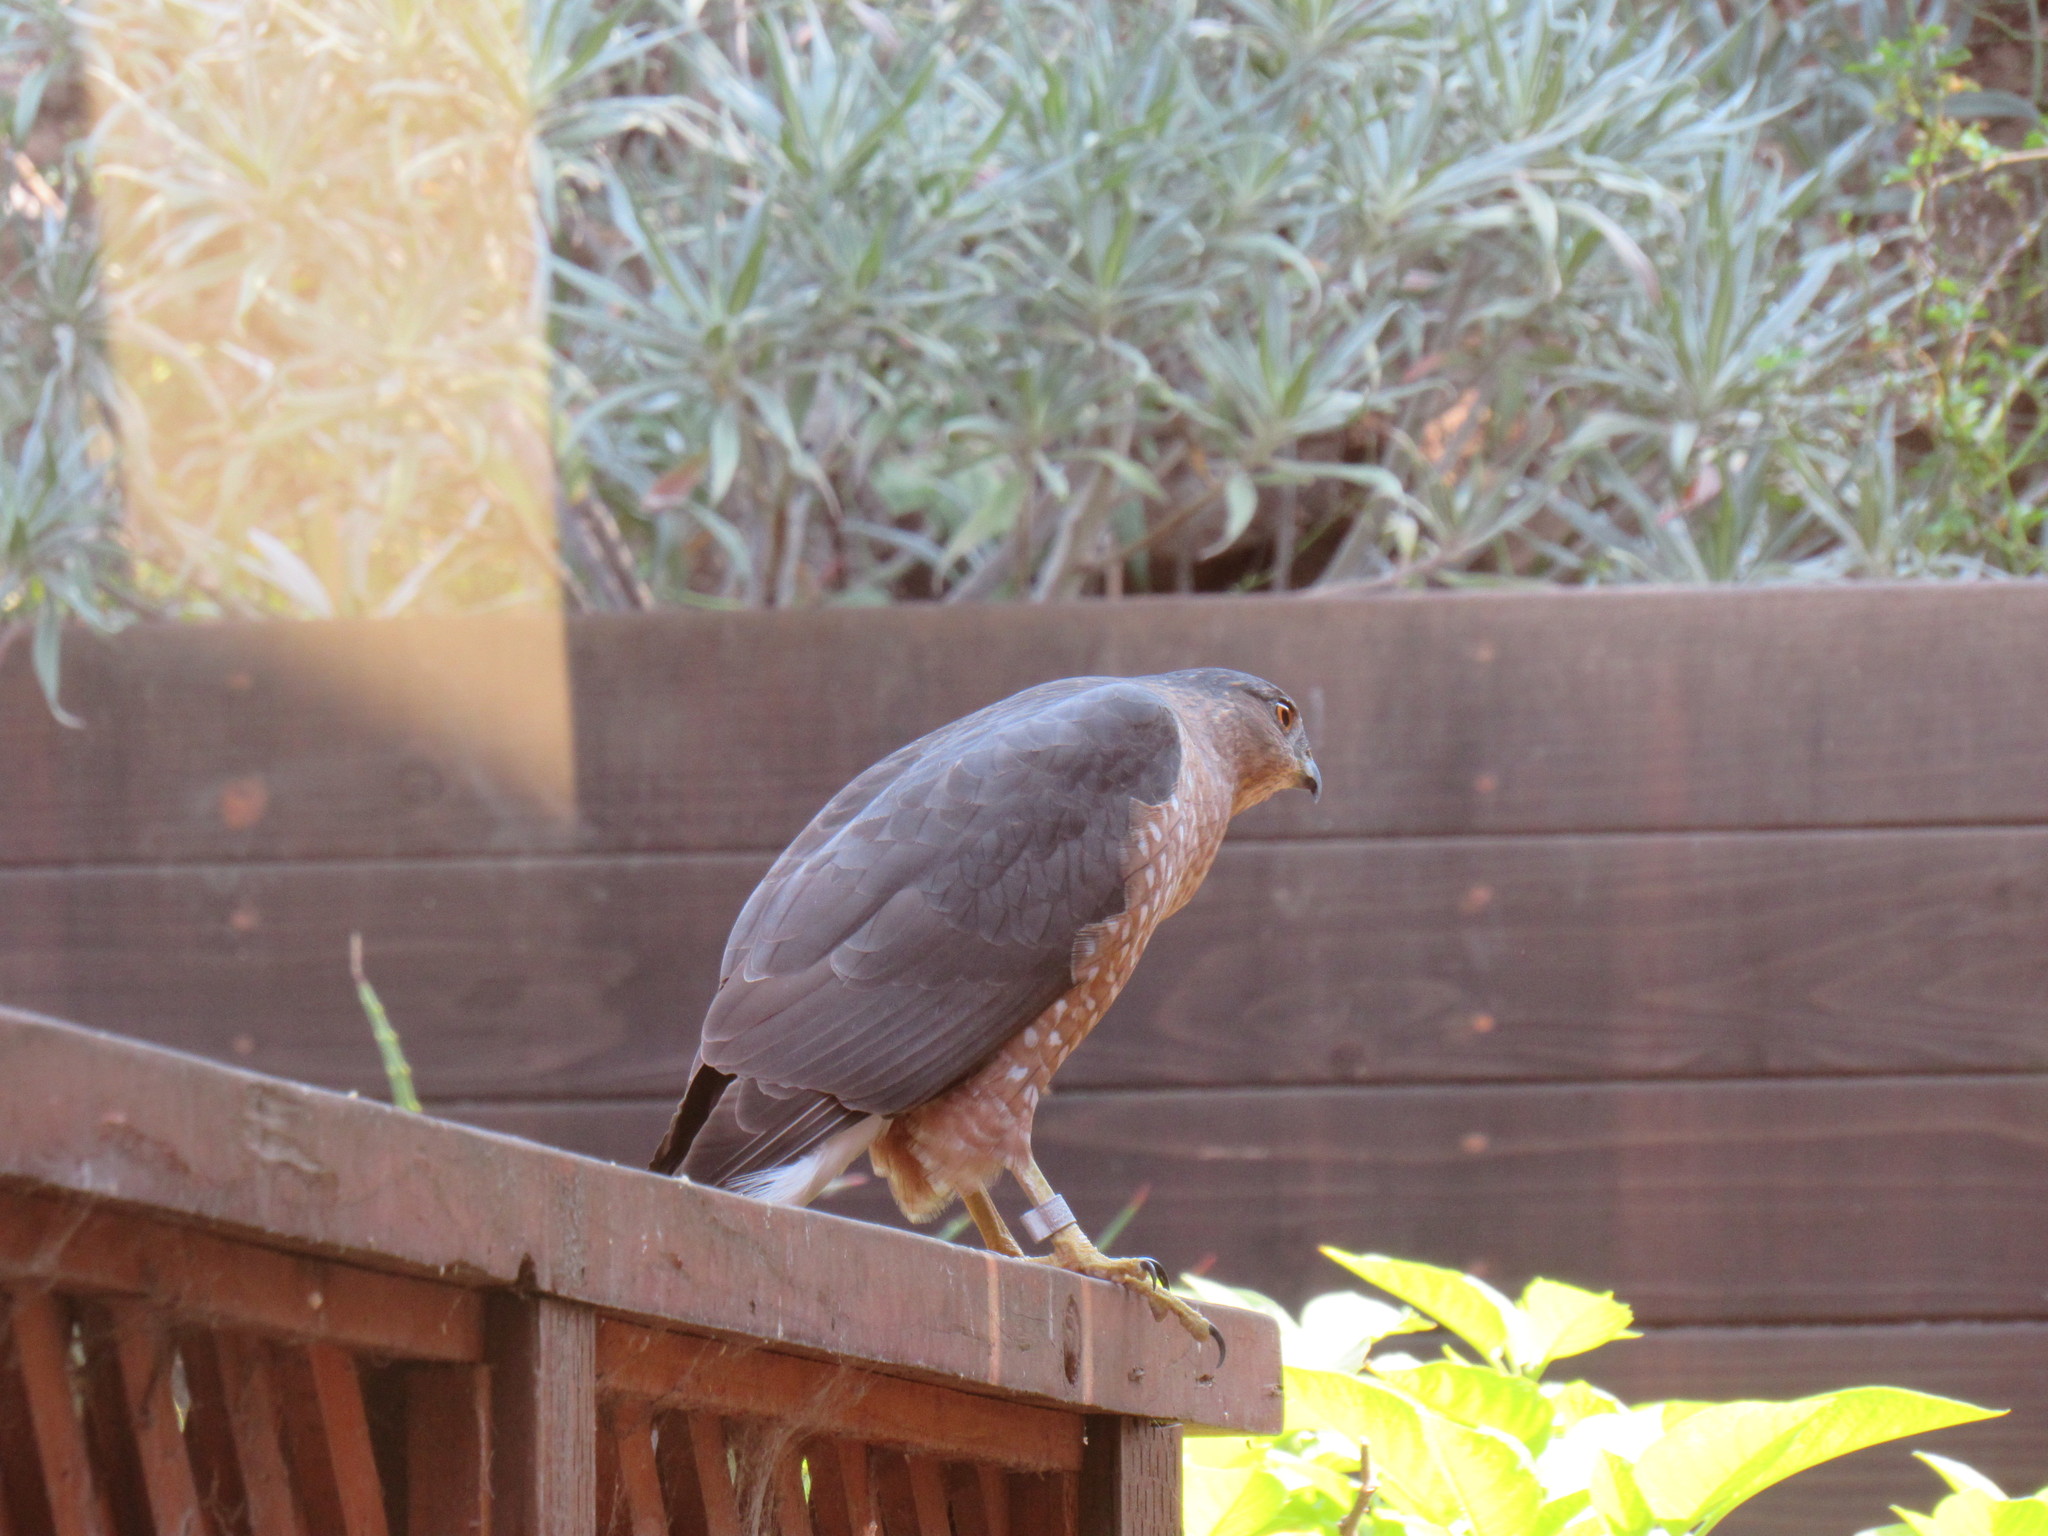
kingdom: Animalia
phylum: Chordata
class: Aves
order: Accipitriformes
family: Accipitridae
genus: Accipiter
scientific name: Accipiter cooperii
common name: Cooper's hawk
